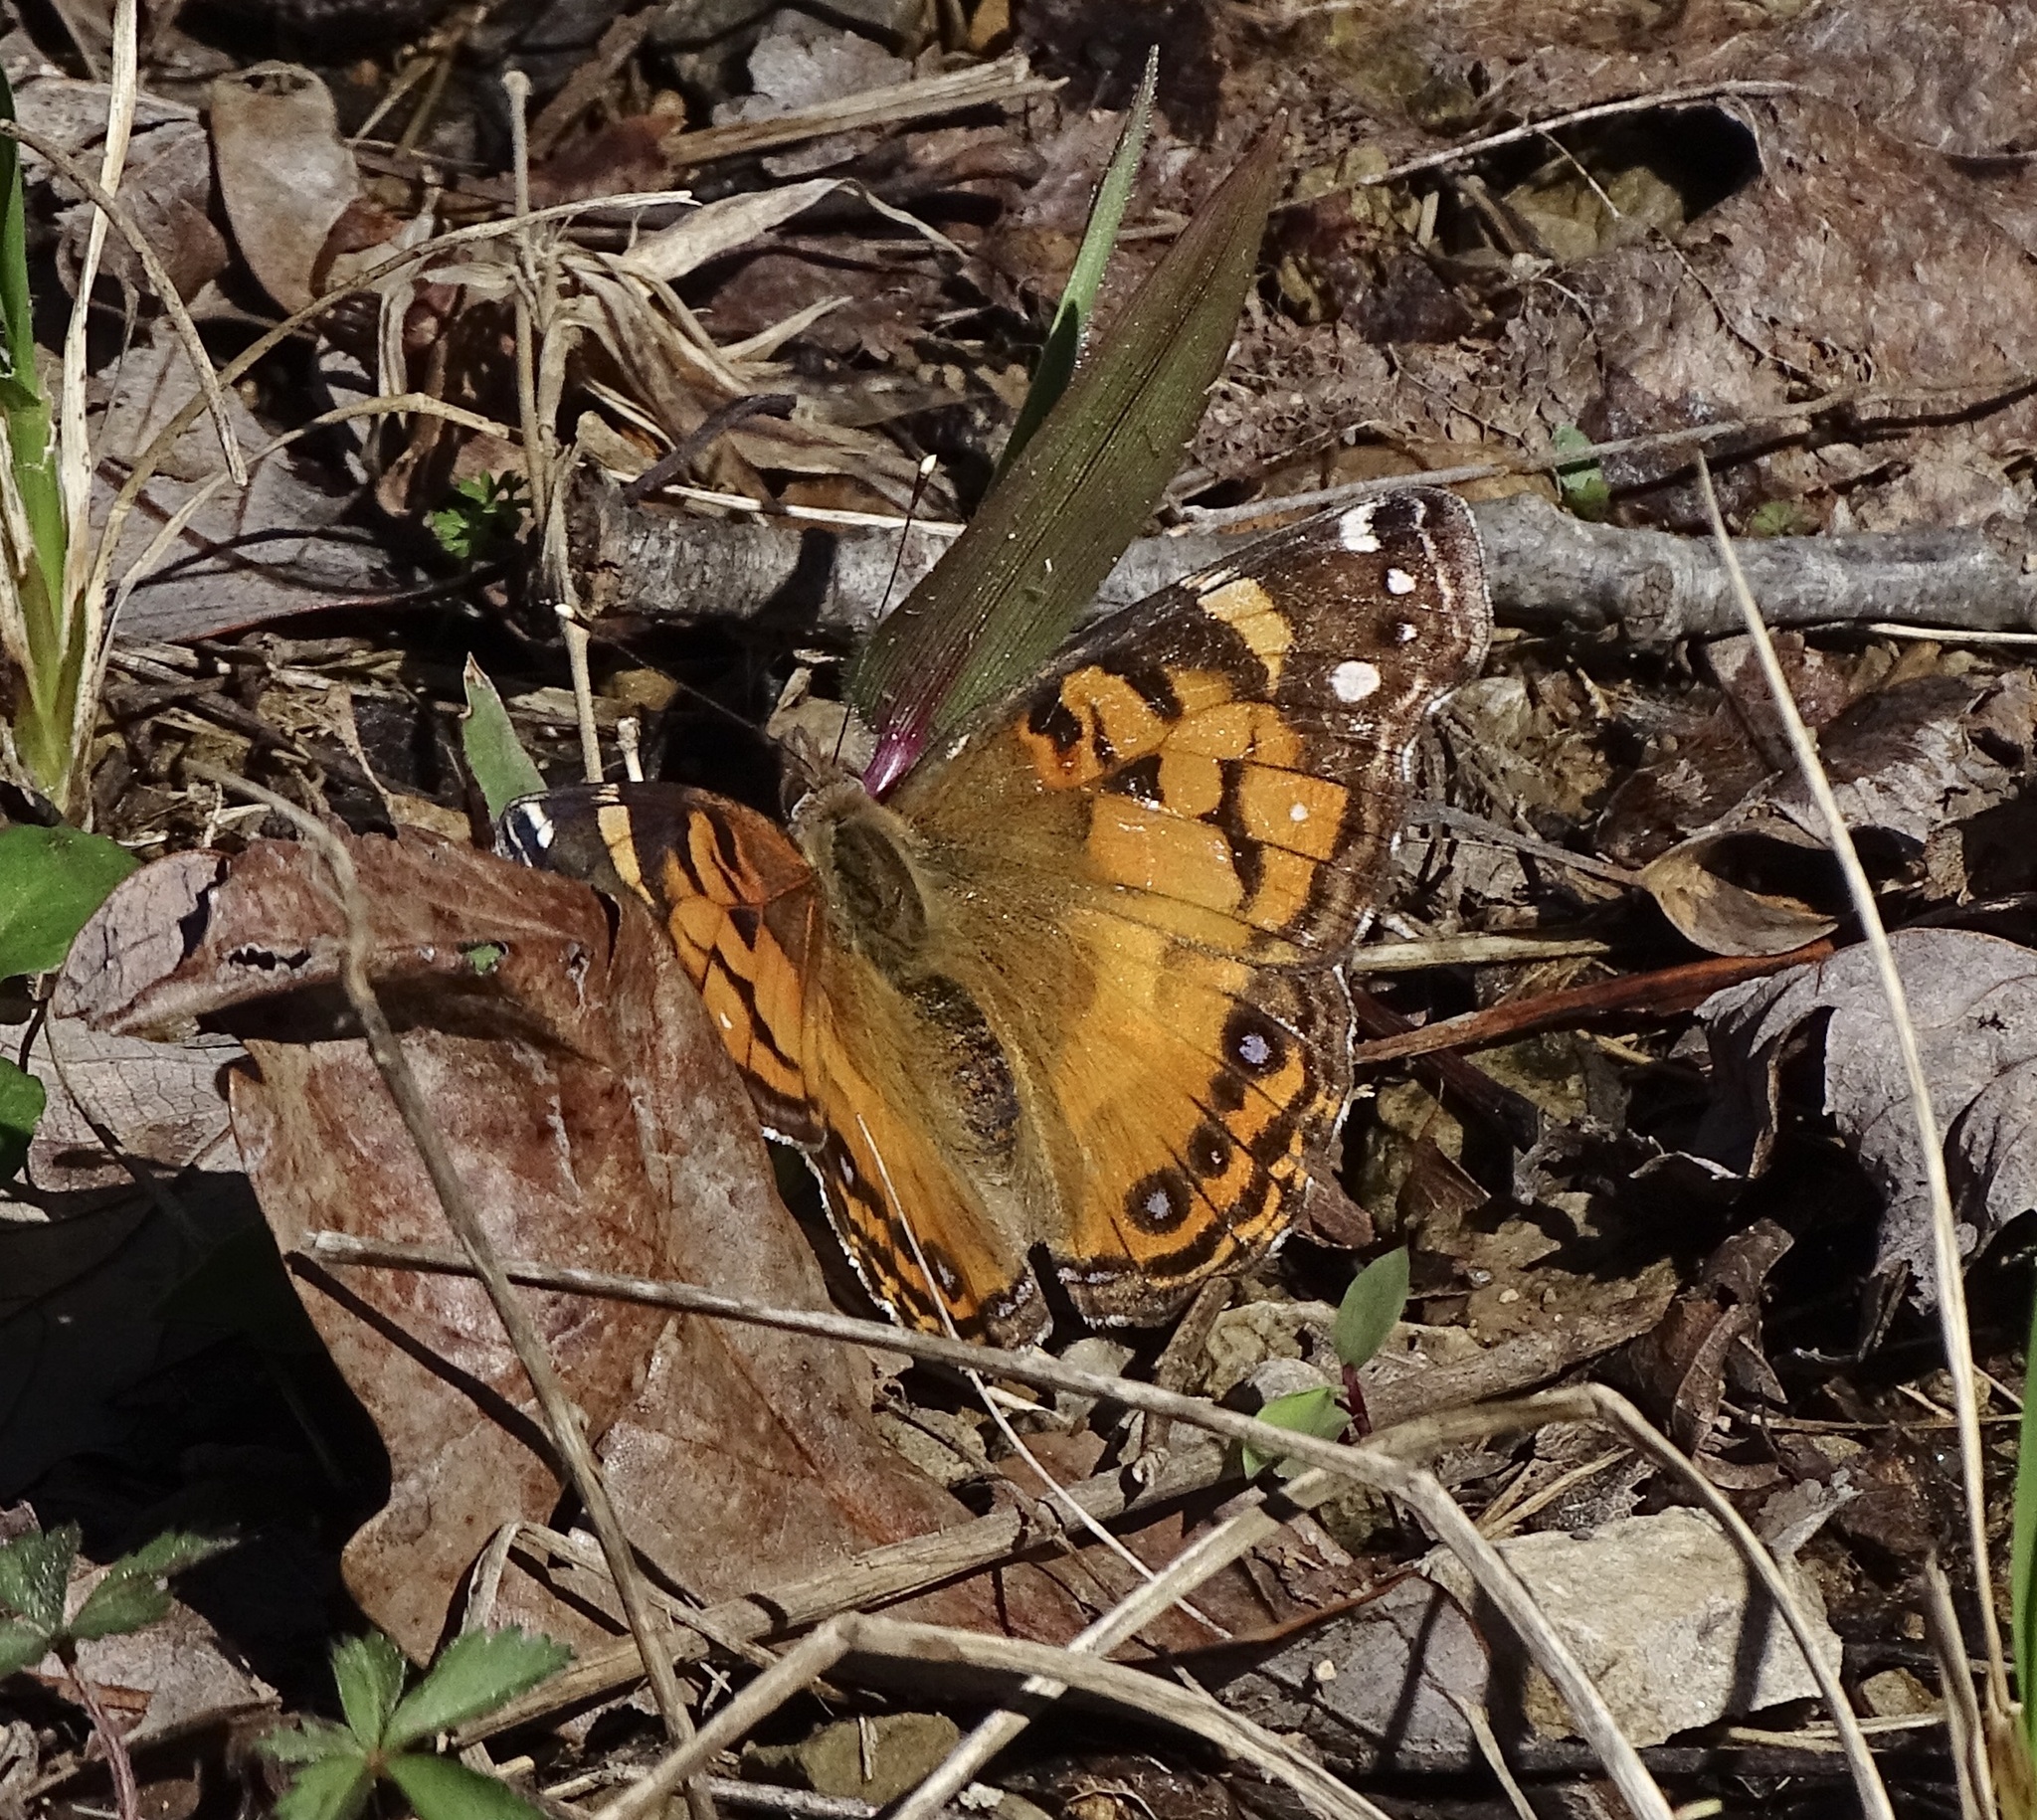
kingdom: Animalia
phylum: Arthropoda
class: Insecta
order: Lepidoptera
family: Nymphalidae
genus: Vanessa
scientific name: Vanessa virginiensis
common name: American lady
